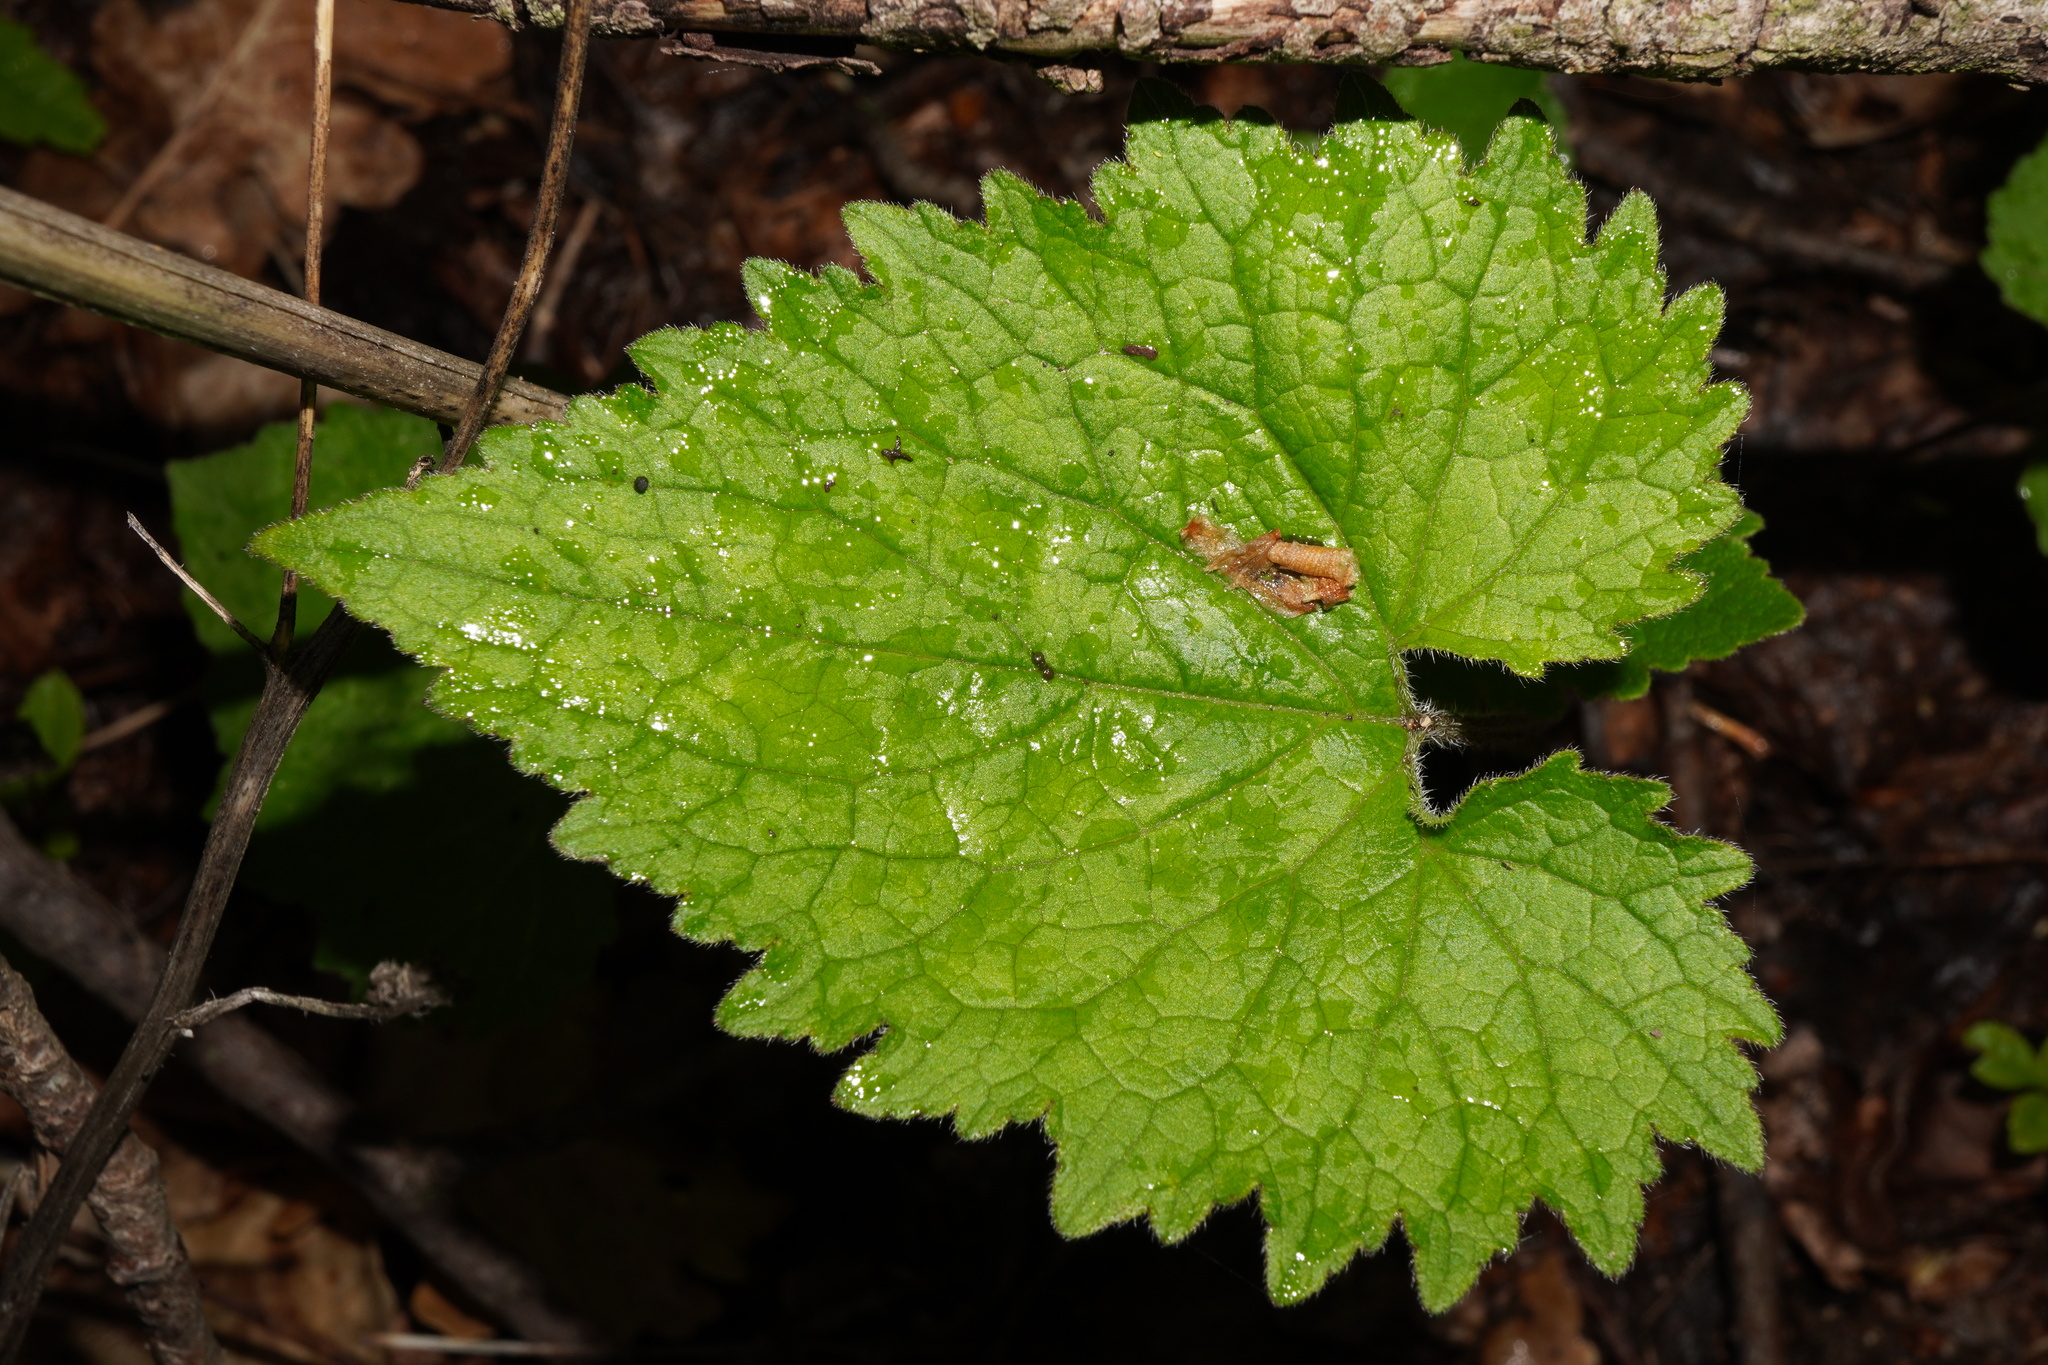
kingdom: Plantae
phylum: Tracheophyta
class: Magnoliopsida
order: Asterales
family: Campanulaceae
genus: Campanula
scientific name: Campanula trachelium
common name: Nettle-leaved bellflower
